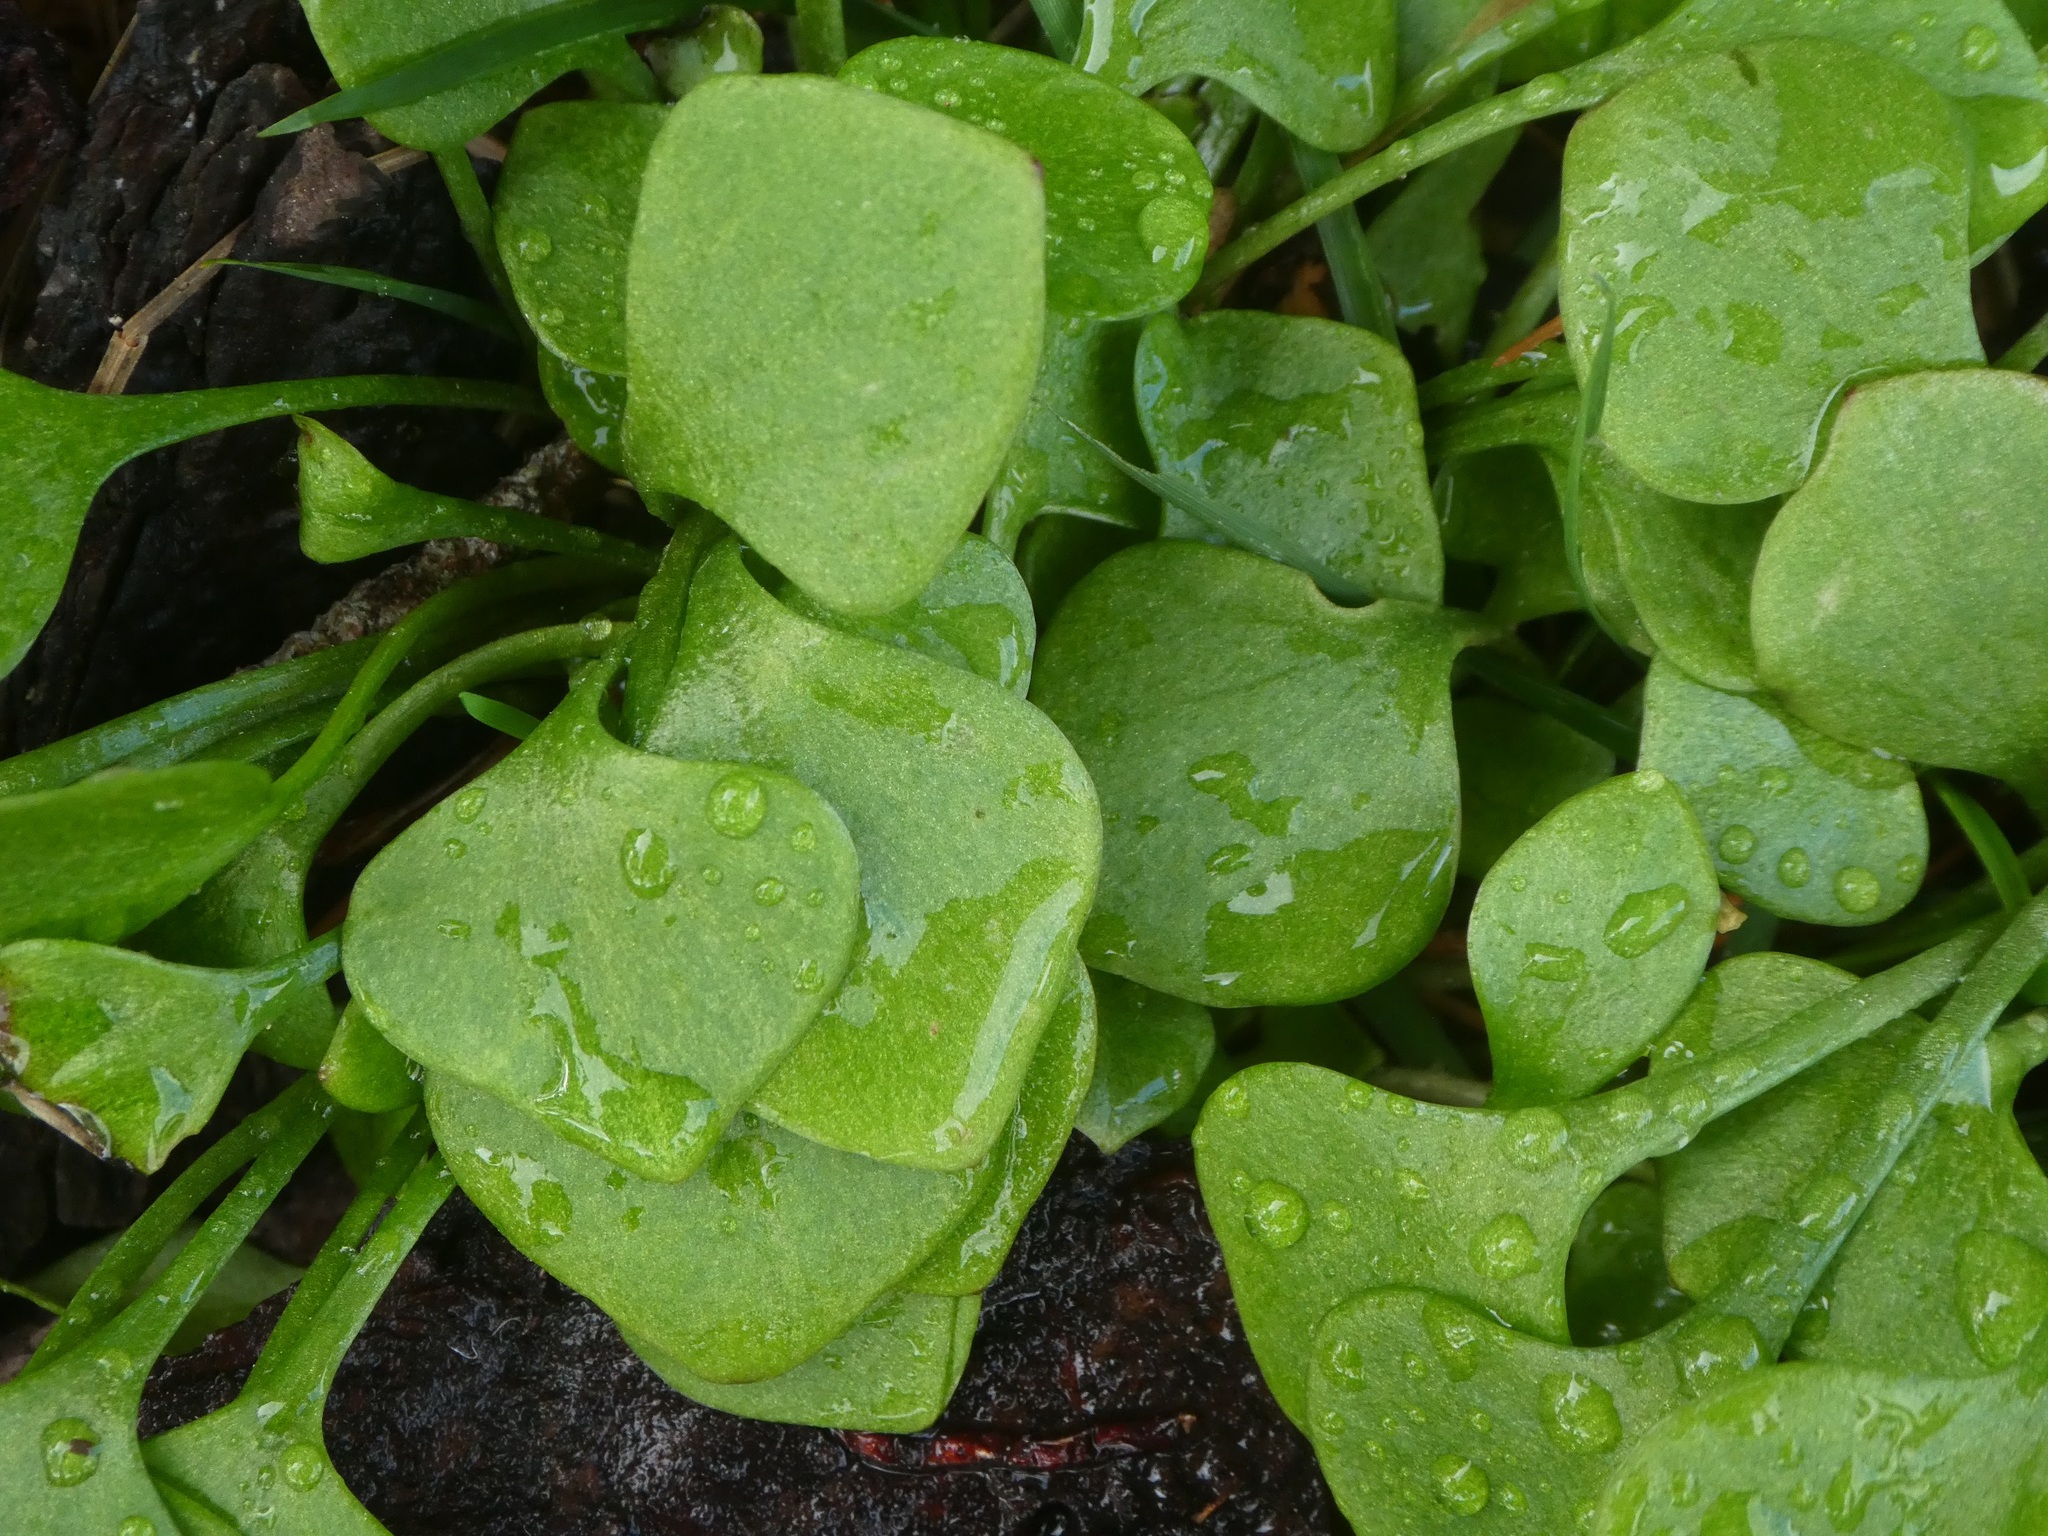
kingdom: Plantae
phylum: Tracheophyta
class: Magnoliopsida
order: Caryophyllales
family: Montiaceae
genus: Claytonia
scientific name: Claytonia perfoliata
